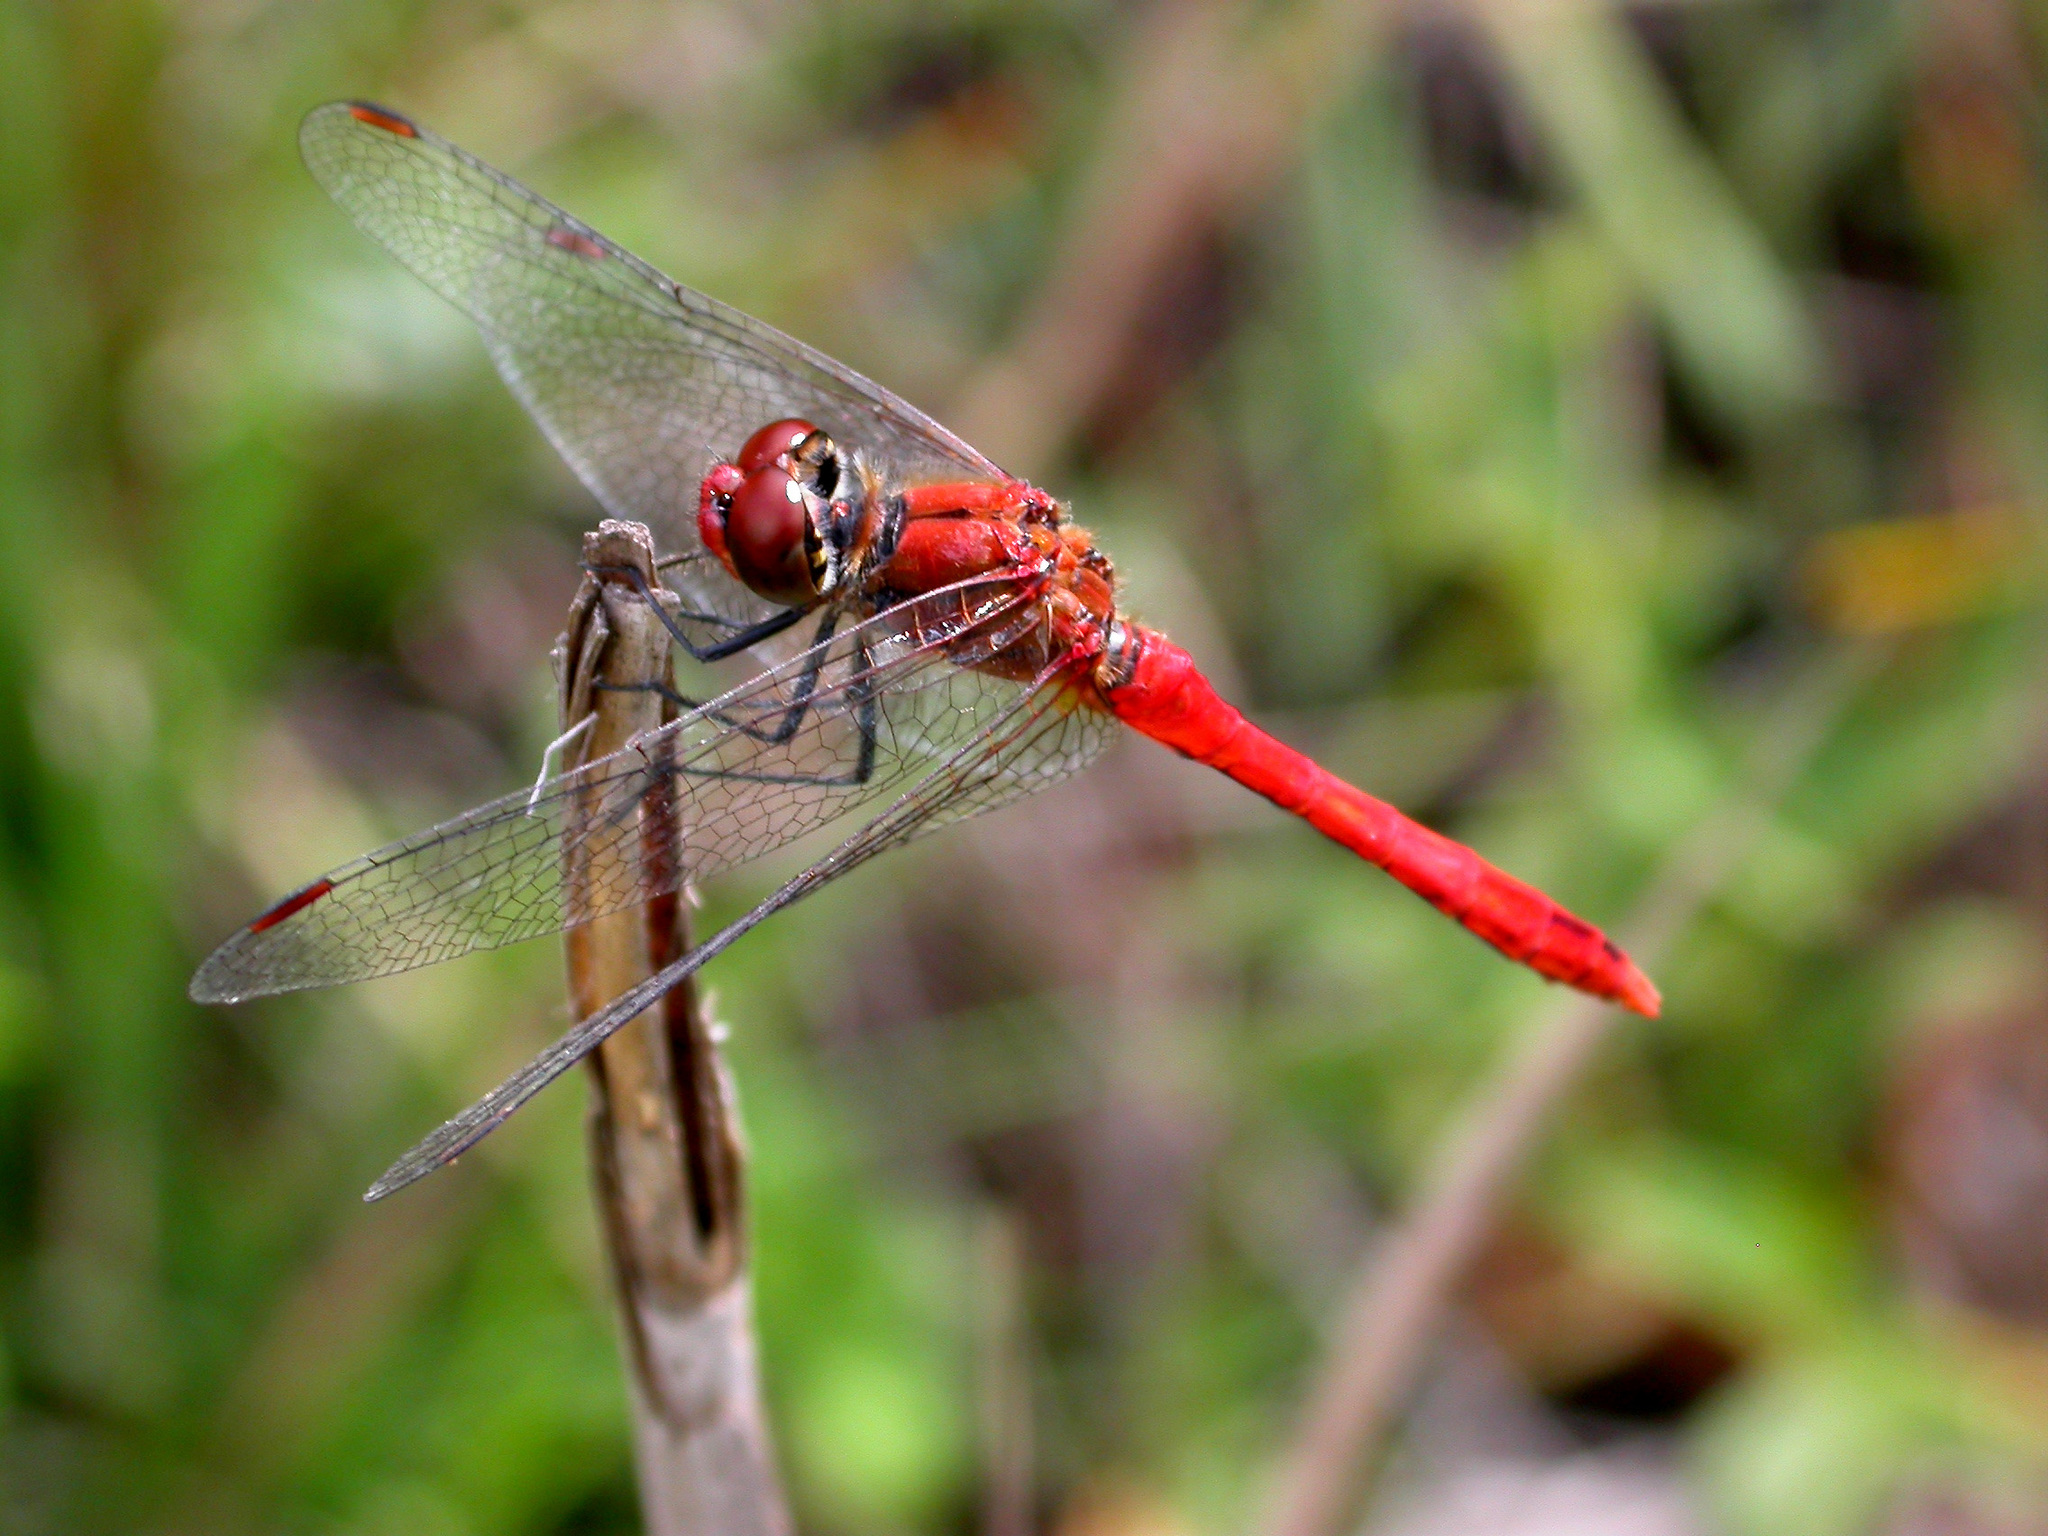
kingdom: Animalia
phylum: Arthropoda
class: Insecta
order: Odonata
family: Libellulidae
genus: Sympetrum
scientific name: Sympetrum sanguineum
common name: Ruddy darter
